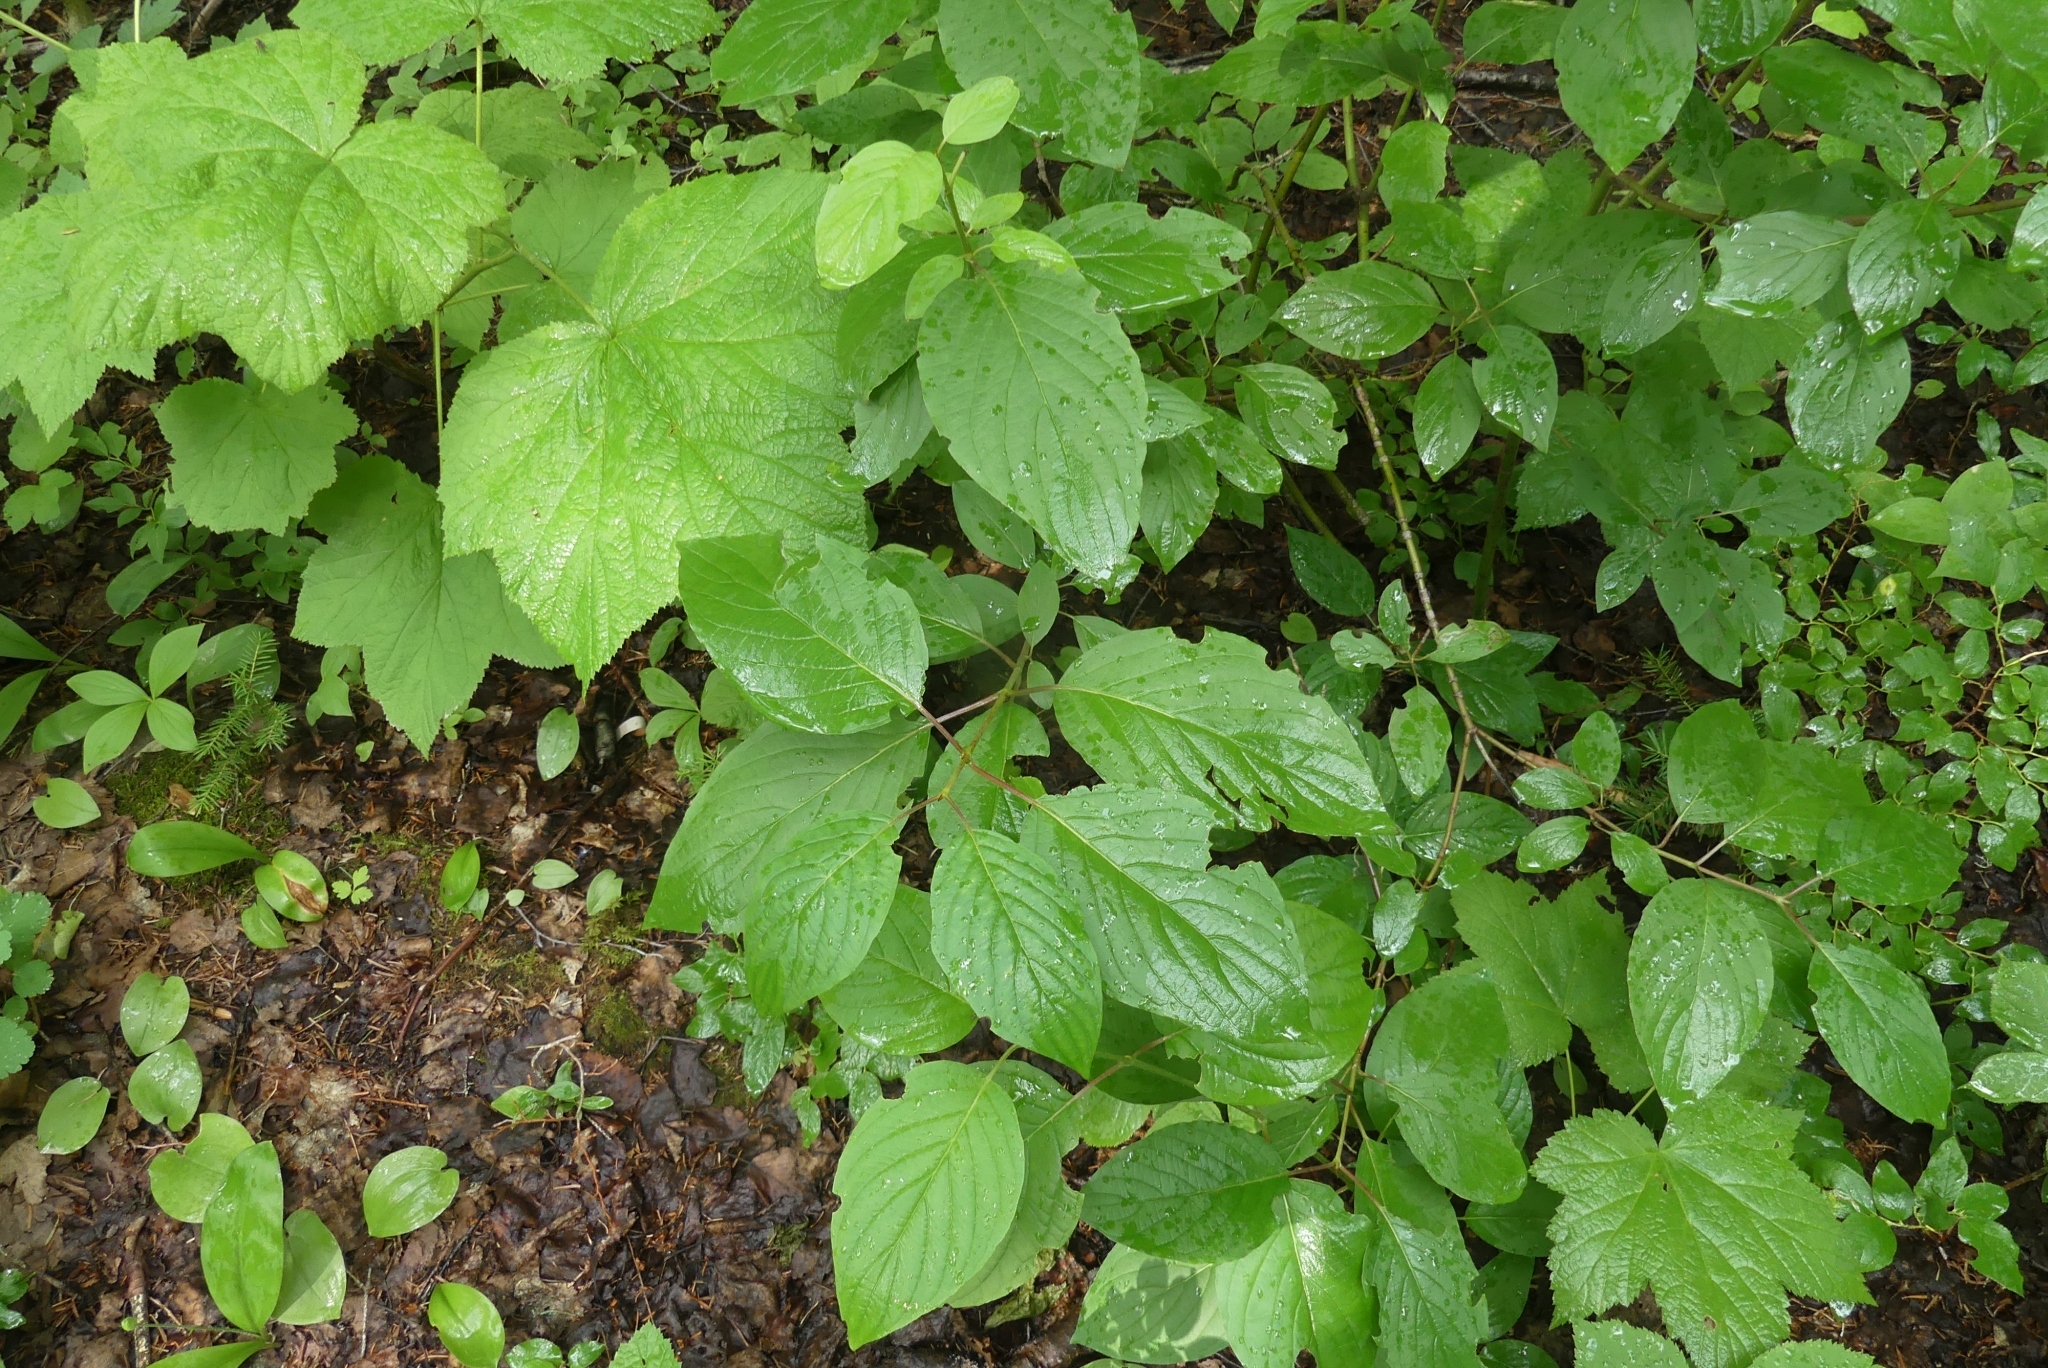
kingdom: Plantae
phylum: Tracheophyta
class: Magnoliopsida
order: Cornales
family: Cornaceae
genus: Cornus
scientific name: Cornus sericea
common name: Red-osier dogwood
